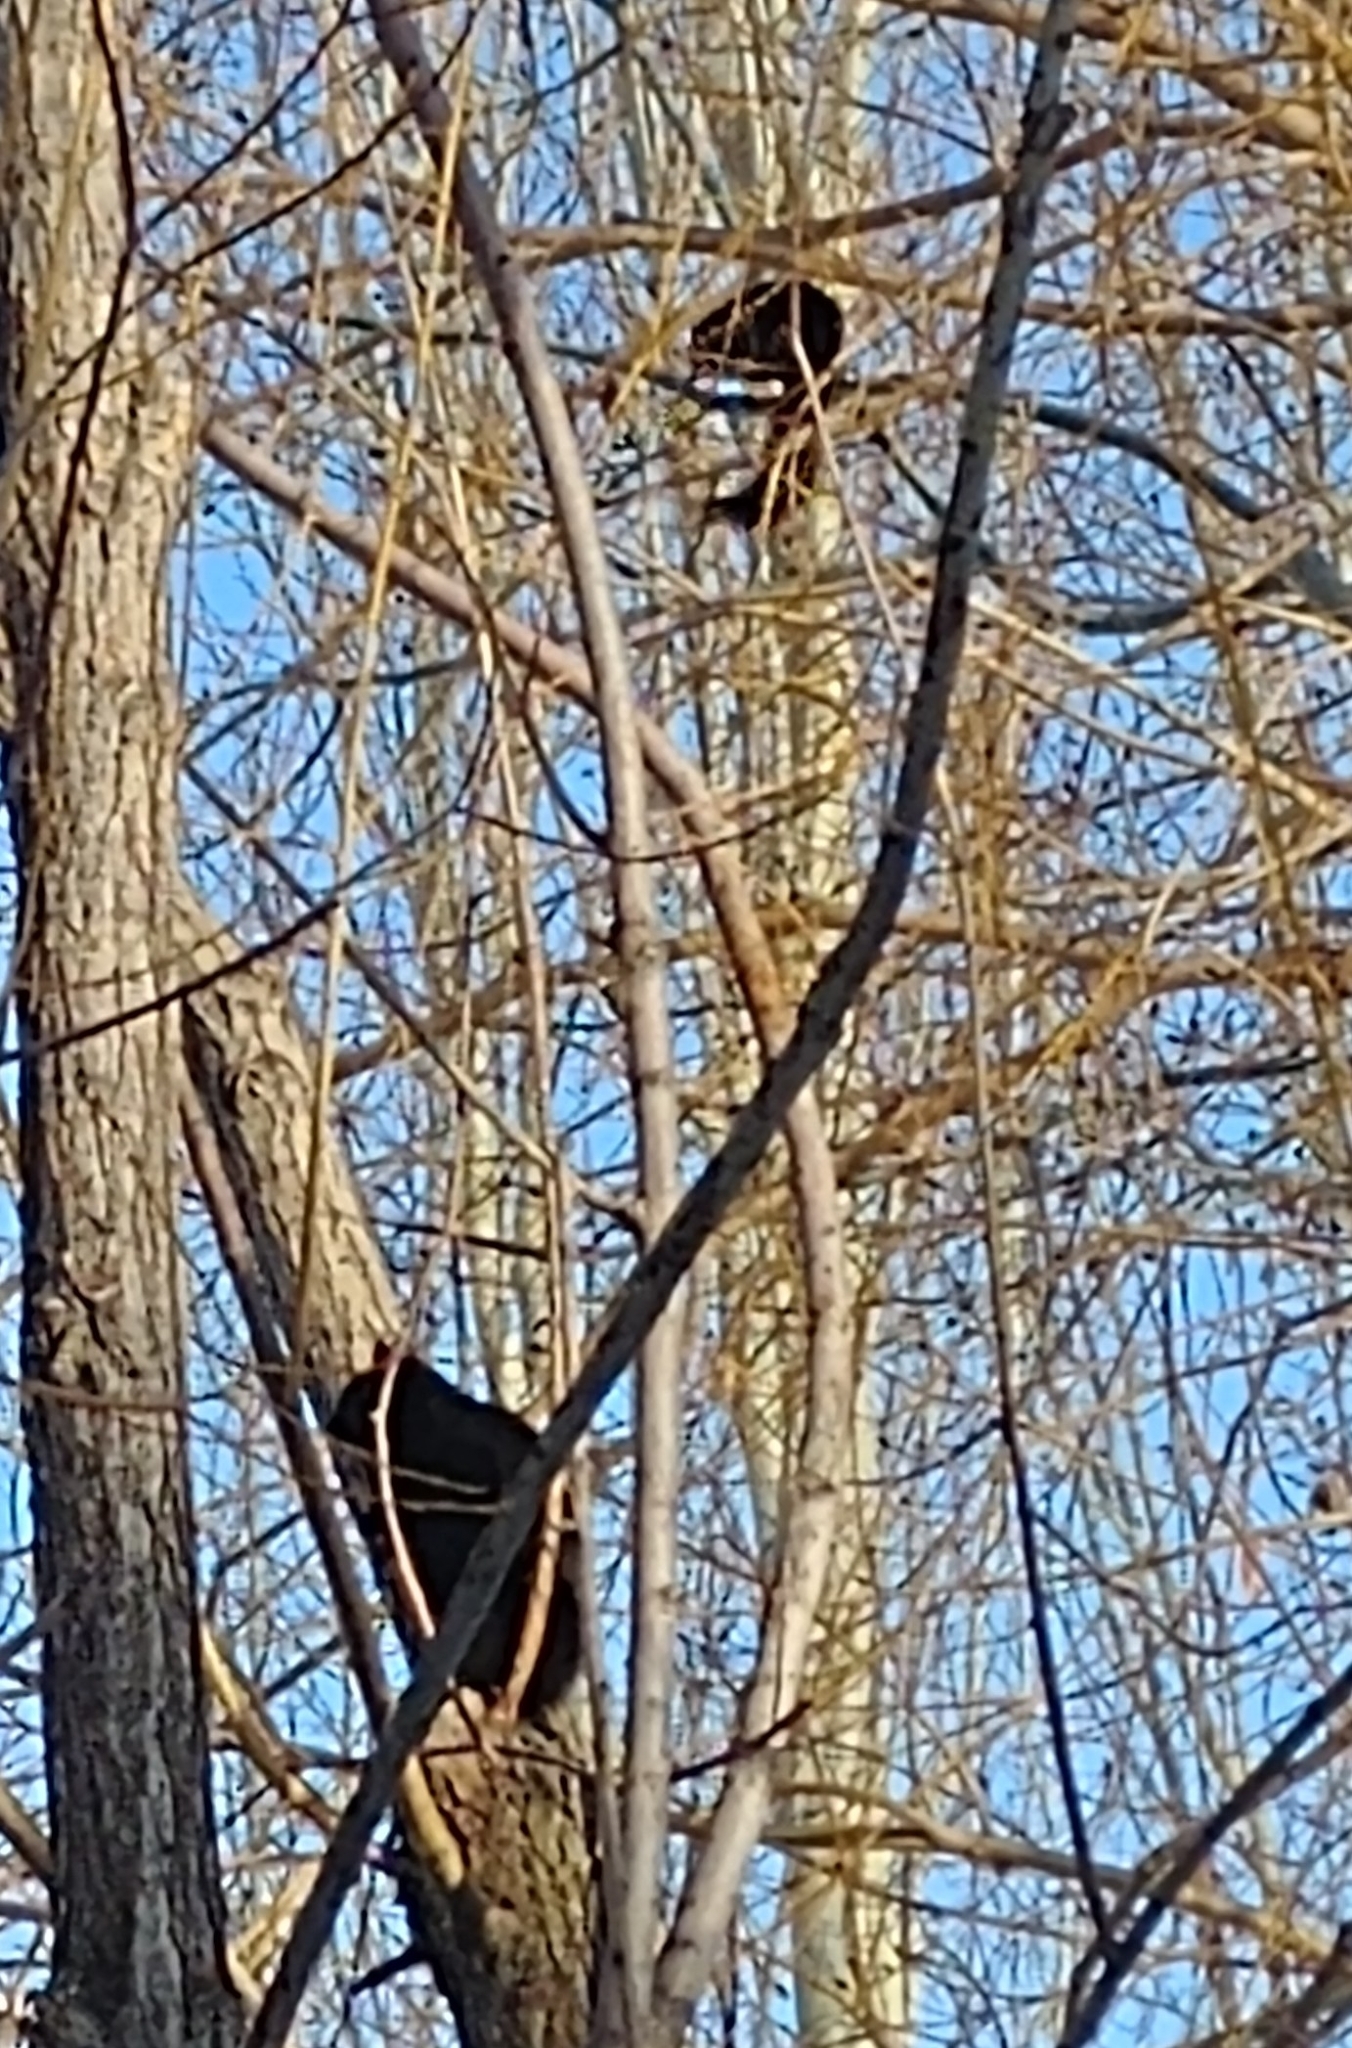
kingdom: Animalia
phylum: Chordata
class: Mammalia
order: Rodentia
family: Sciuridae
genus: Sciurus
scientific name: Sciurus carolinensis
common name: Eastern gray squirrel
